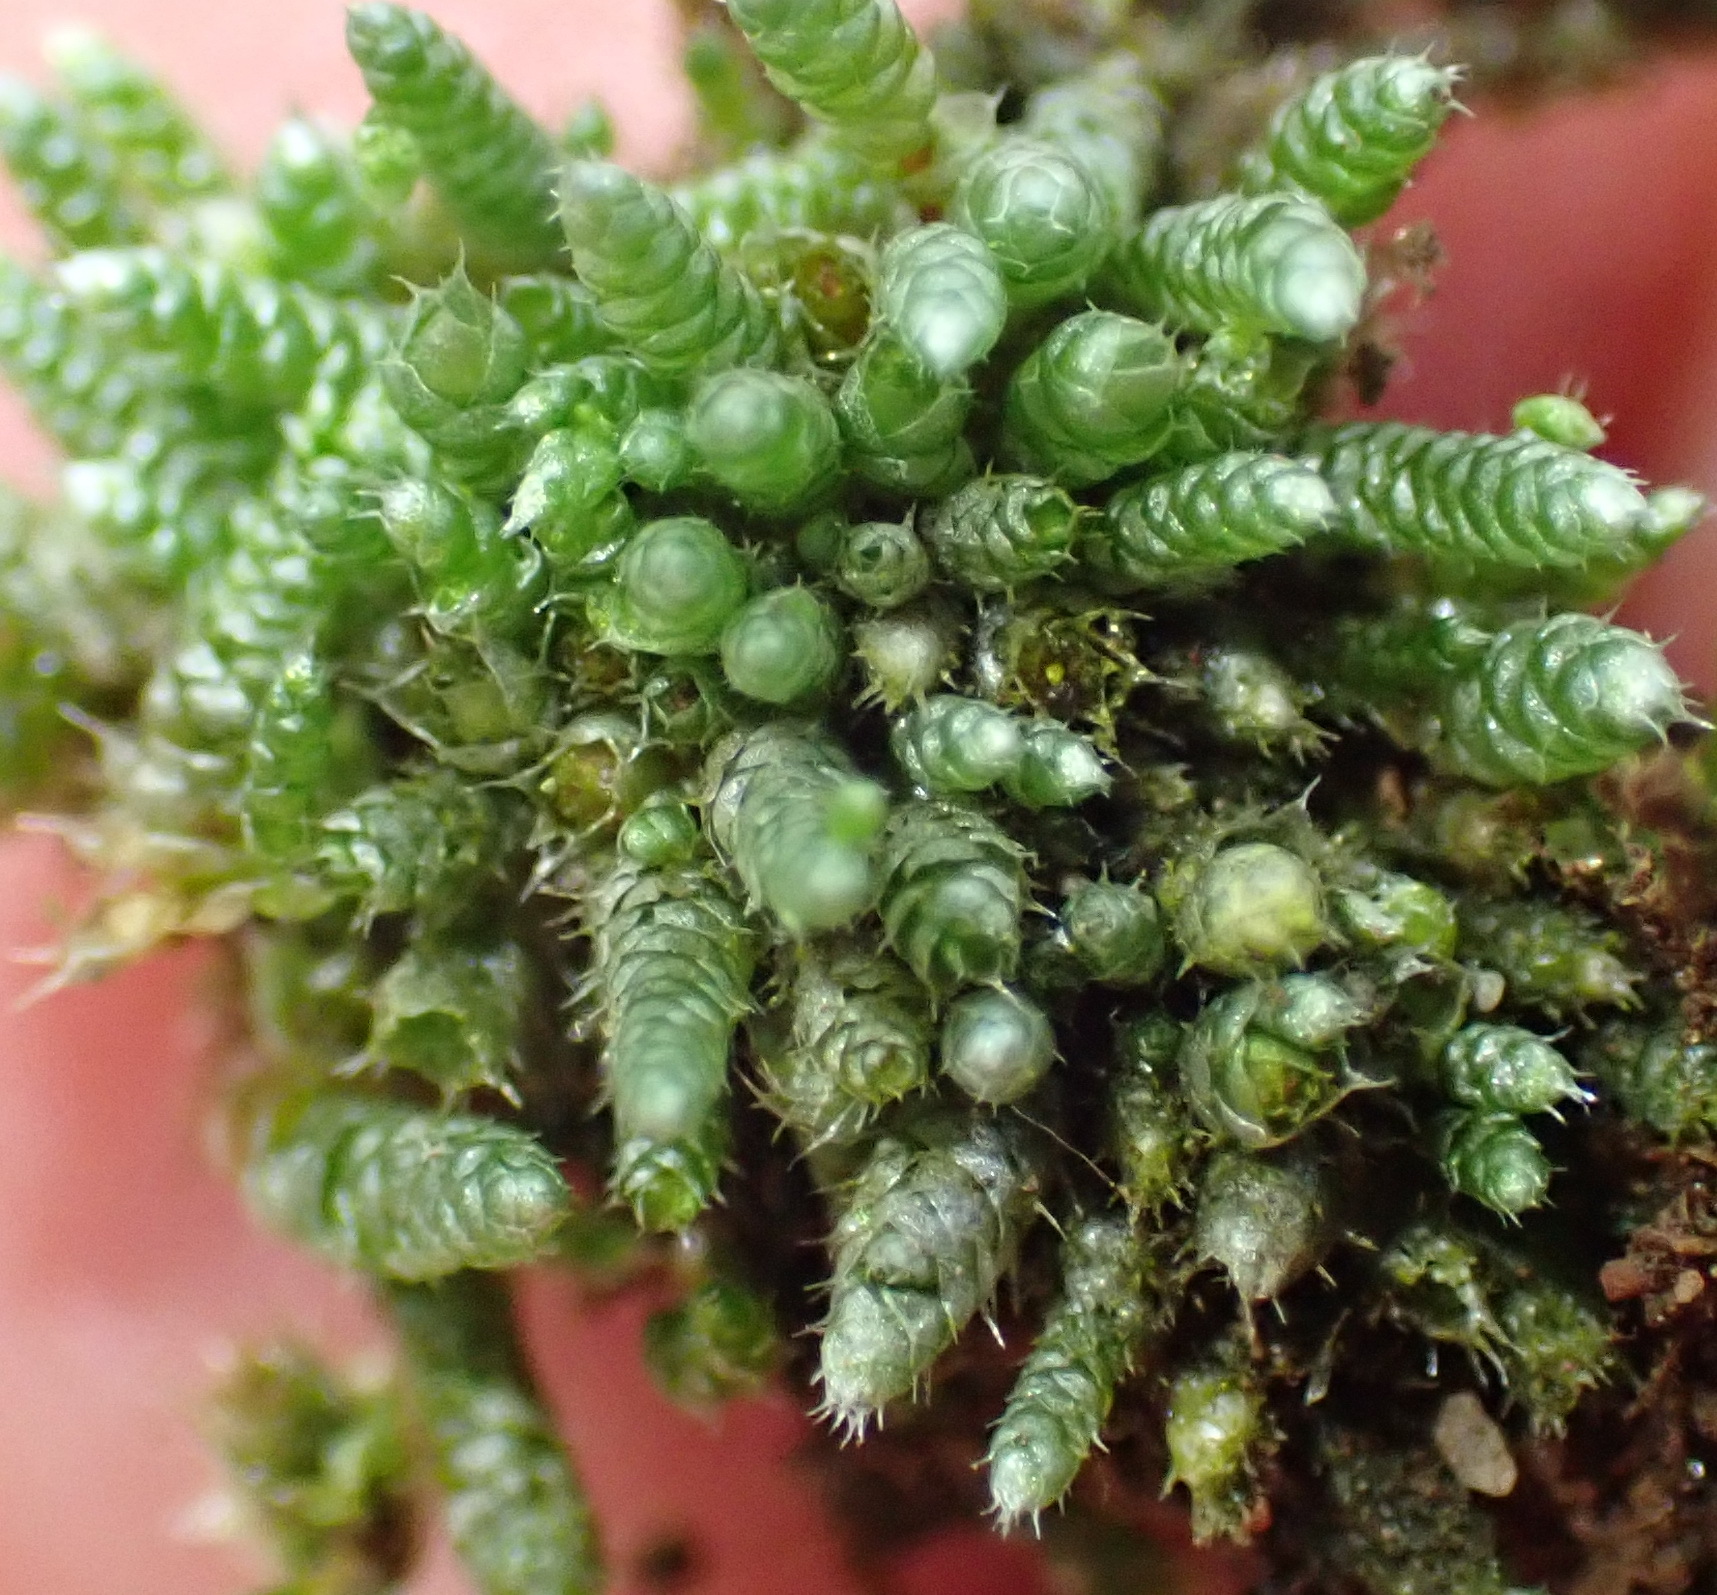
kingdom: Plantae
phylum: Bryophyta
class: Bryopsida
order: Bryales
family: Bryaceae
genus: Bryum
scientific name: Bryum argenteum
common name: Silver-moss
